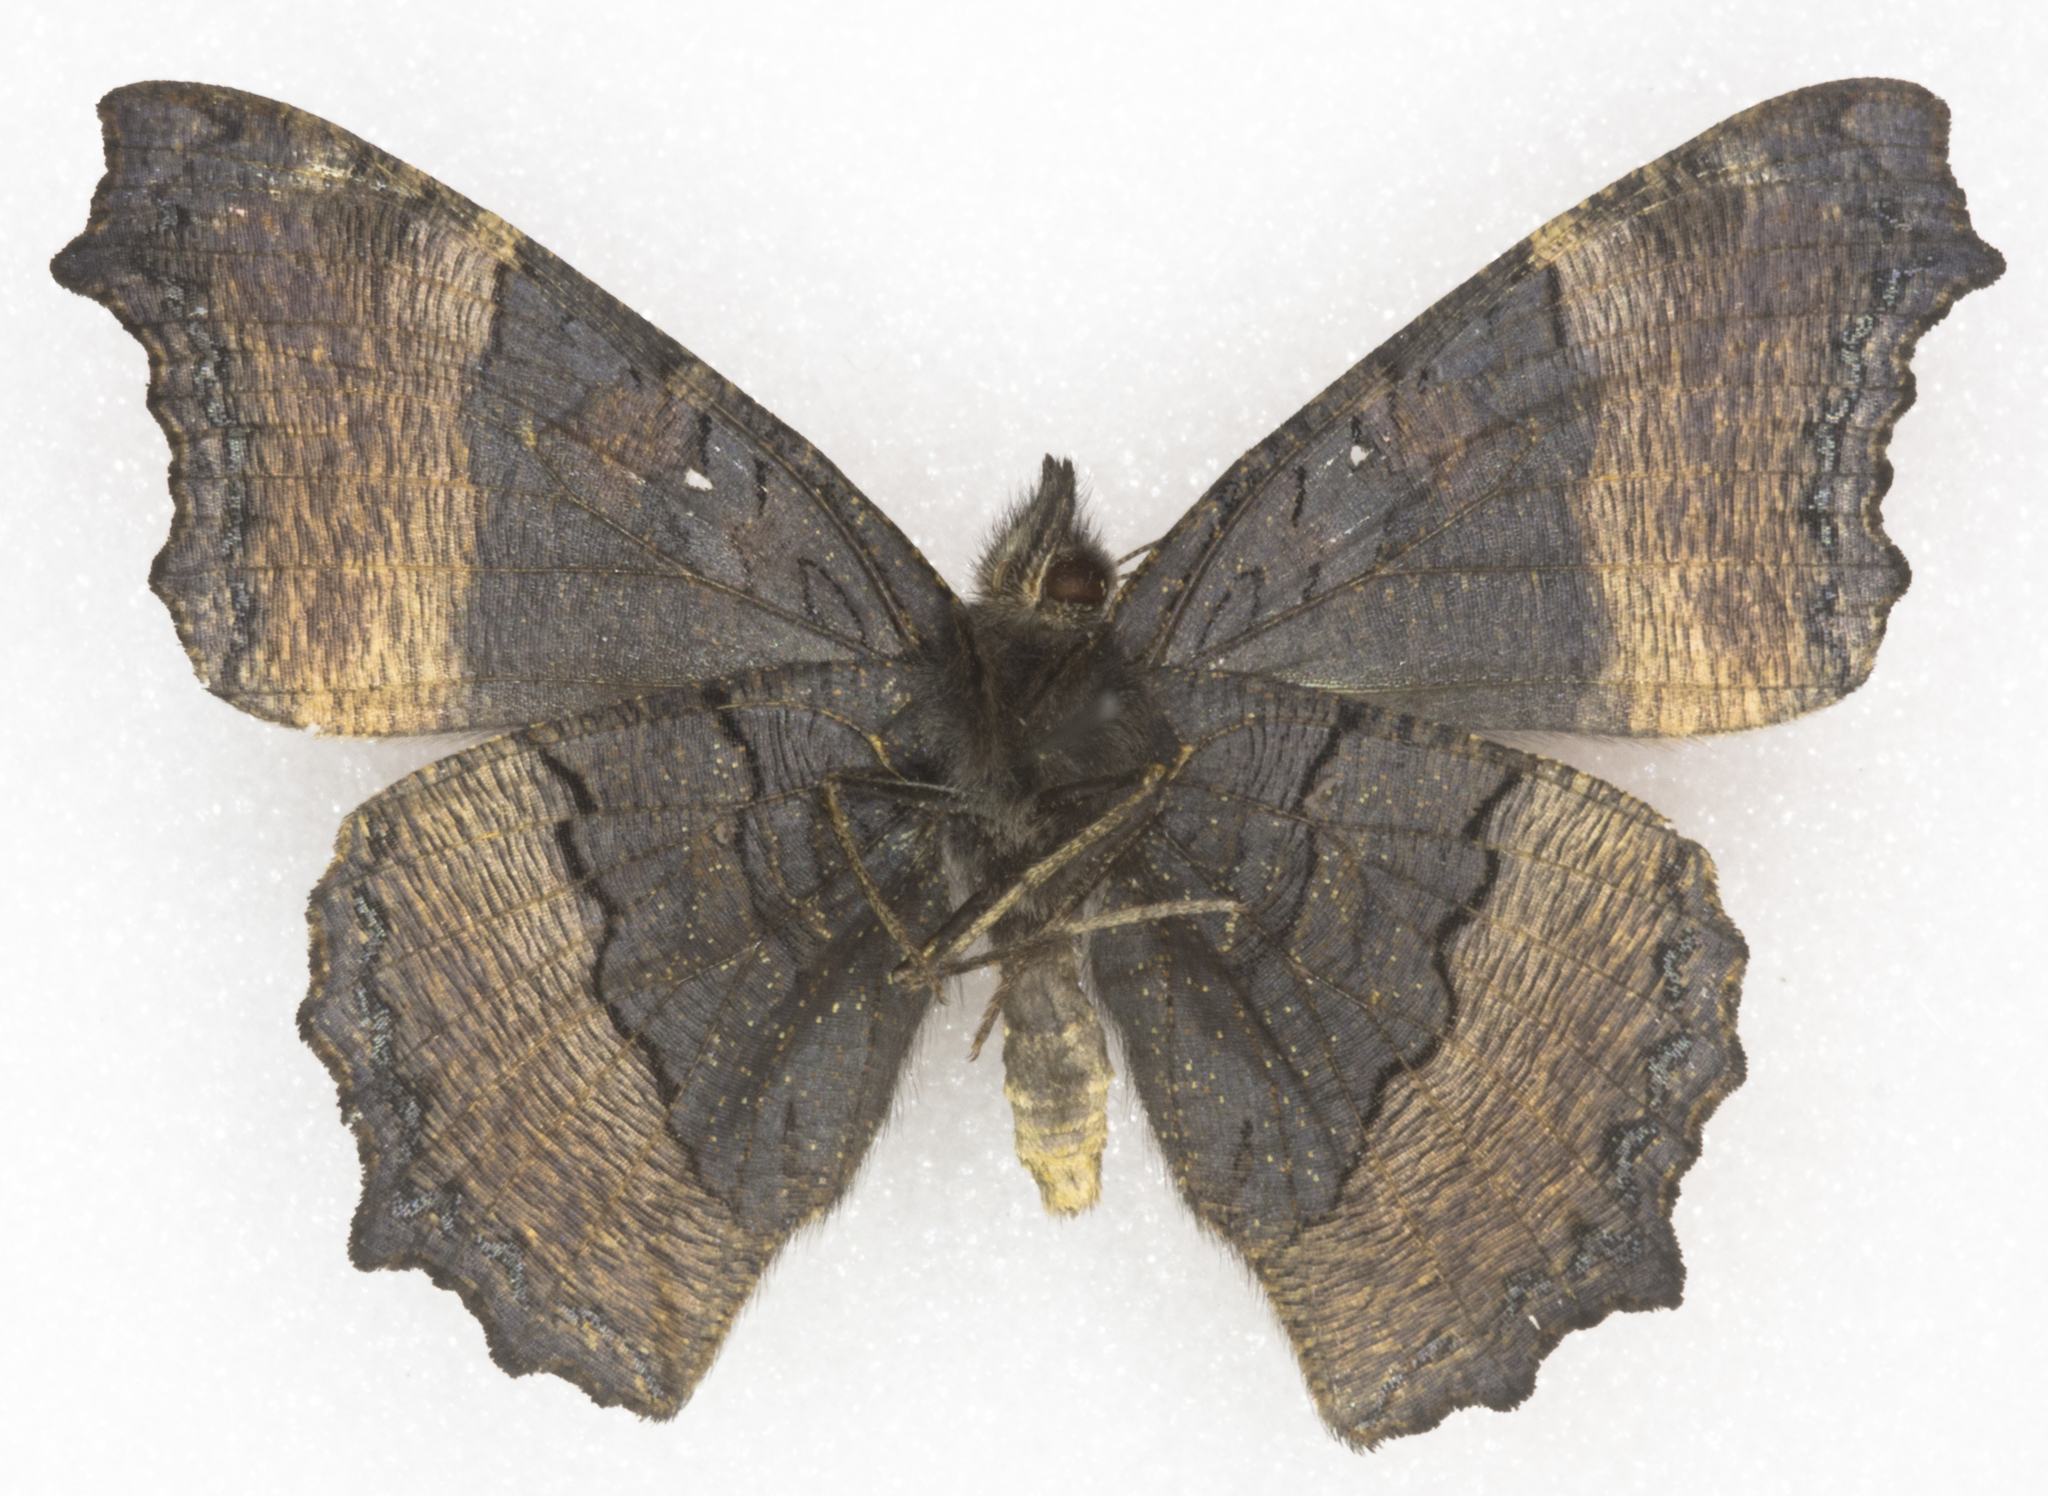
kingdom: Animalia
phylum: Arthropoda
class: Insecta
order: Lepidoptera
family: Nymphalidae
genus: Aglais
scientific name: Aglais milberti
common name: Milbert's tortoiseshell
